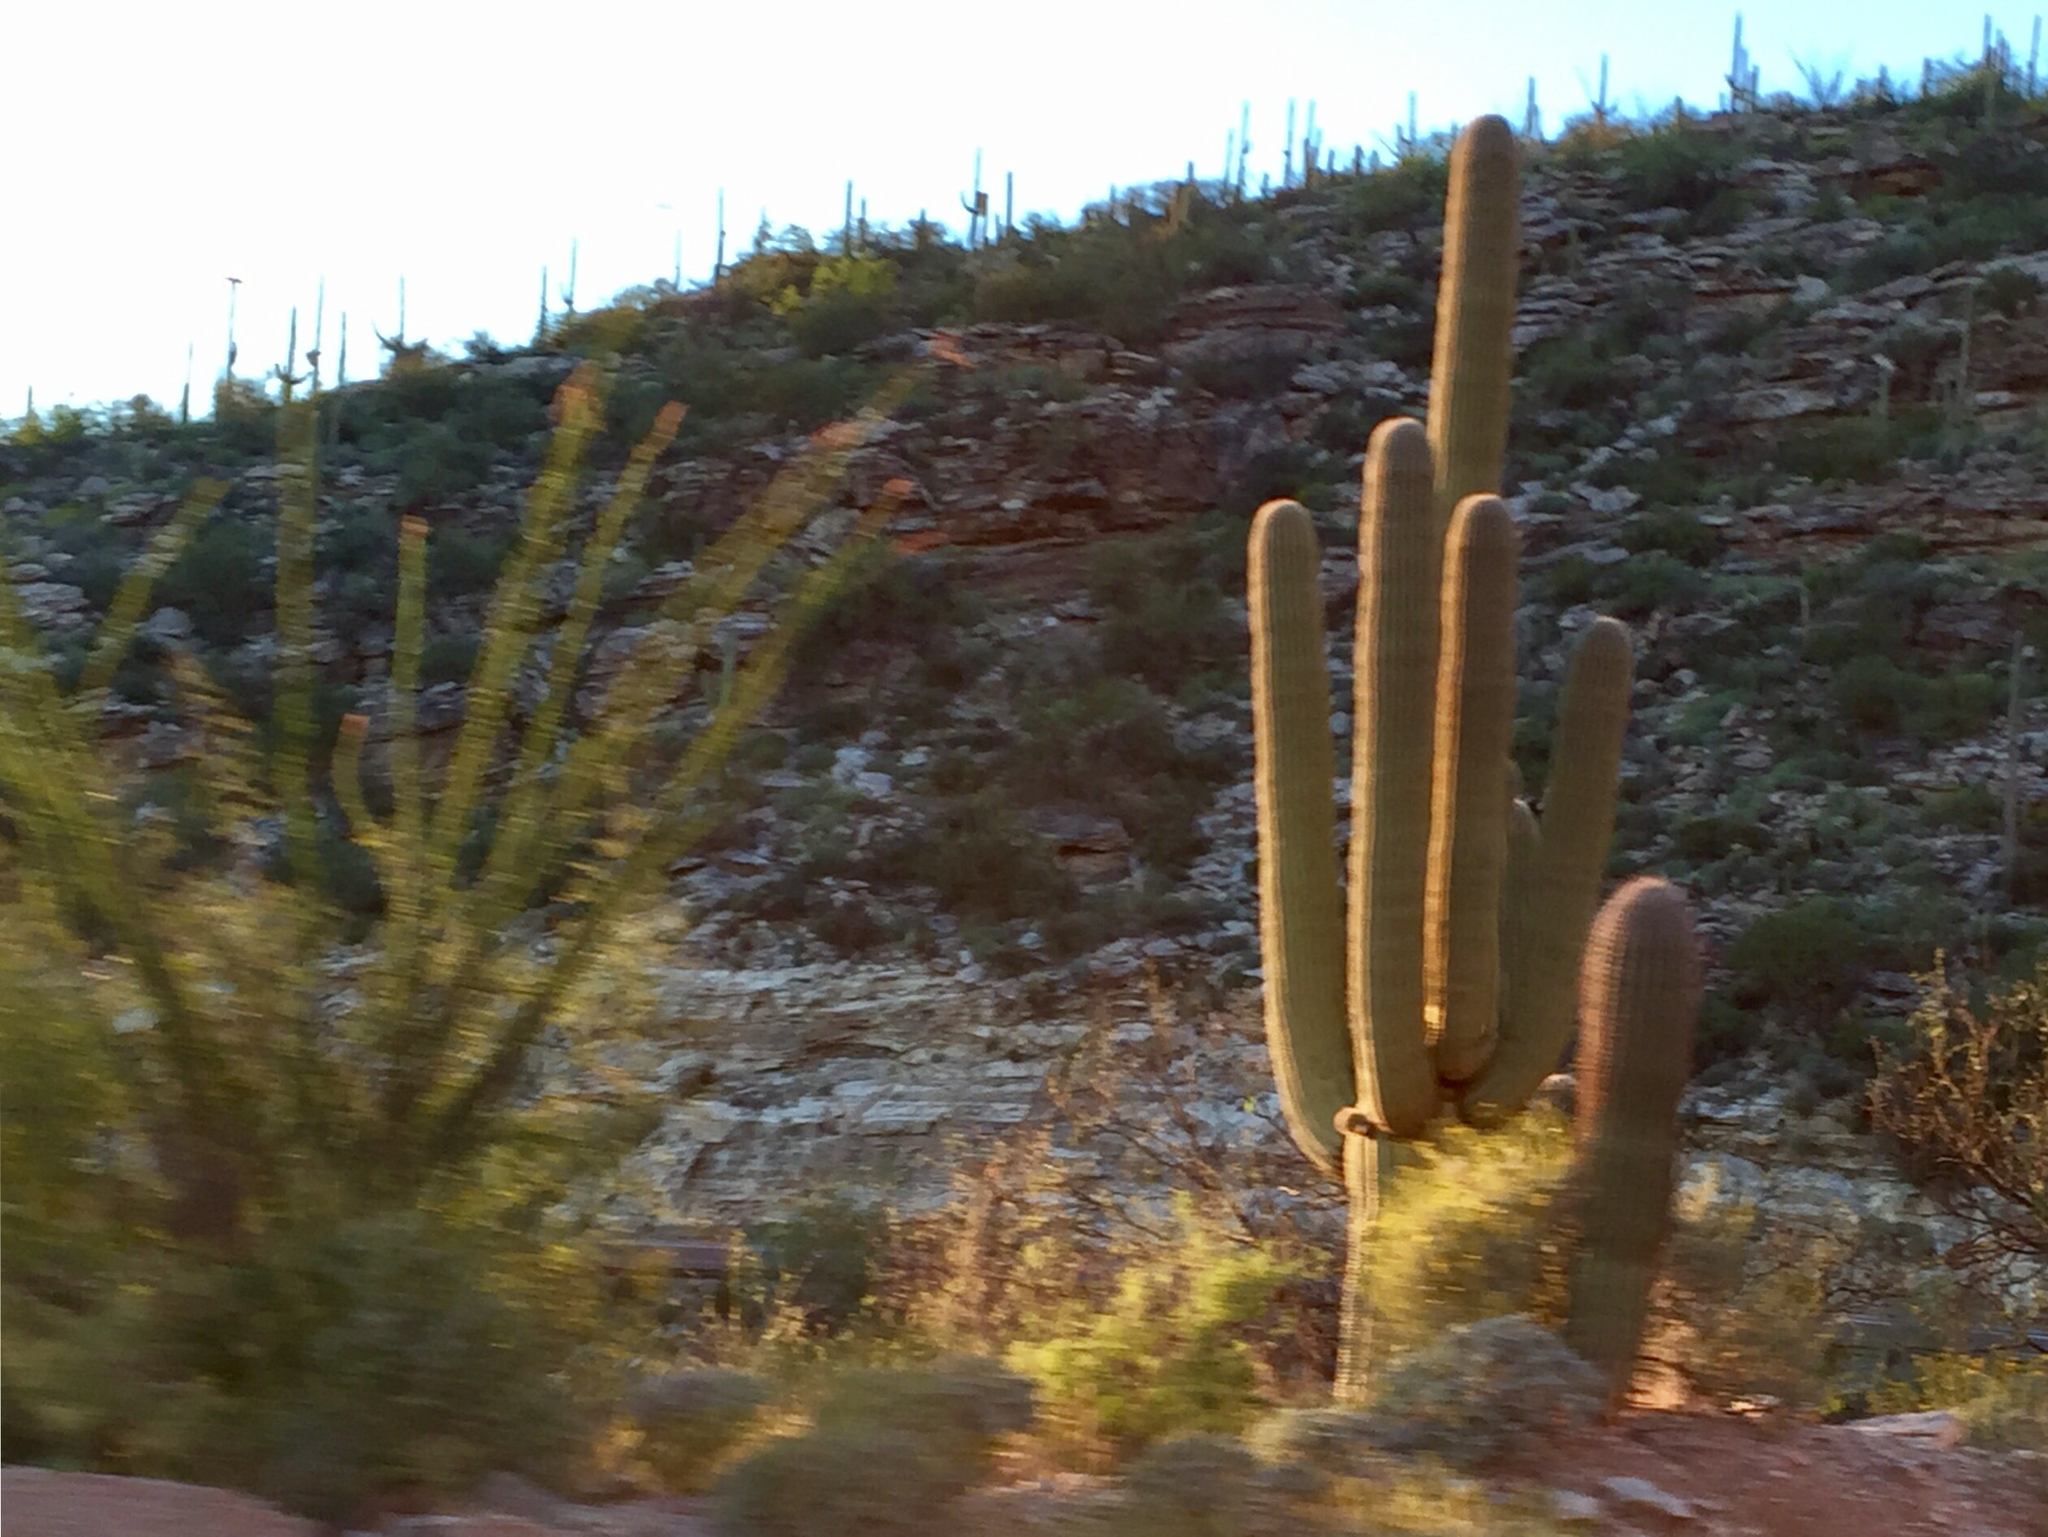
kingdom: Plantae
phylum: Tracheophyta
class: Magnoliopsida
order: Caryophyllales
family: Cactaceae
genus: Carnegiea
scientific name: Carnegiea gigantea
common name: Saguaro
